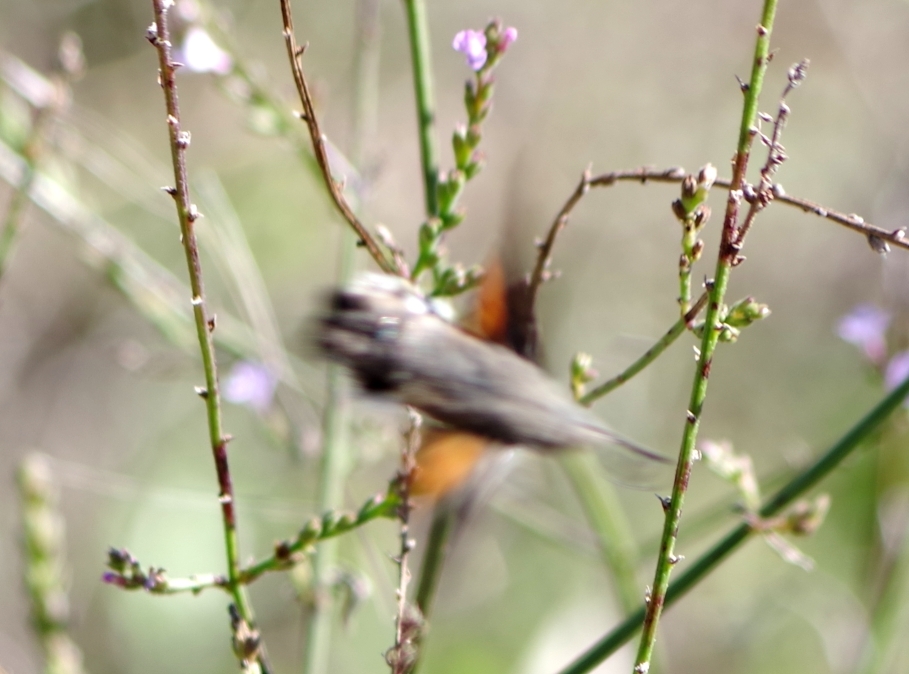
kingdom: Animalia
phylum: Arthropoda
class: Insecta
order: Lepidoptera
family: Sphingidae
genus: Macroglossum
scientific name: Macroglossum stellatarum
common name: Humming-bird hawk-moth
